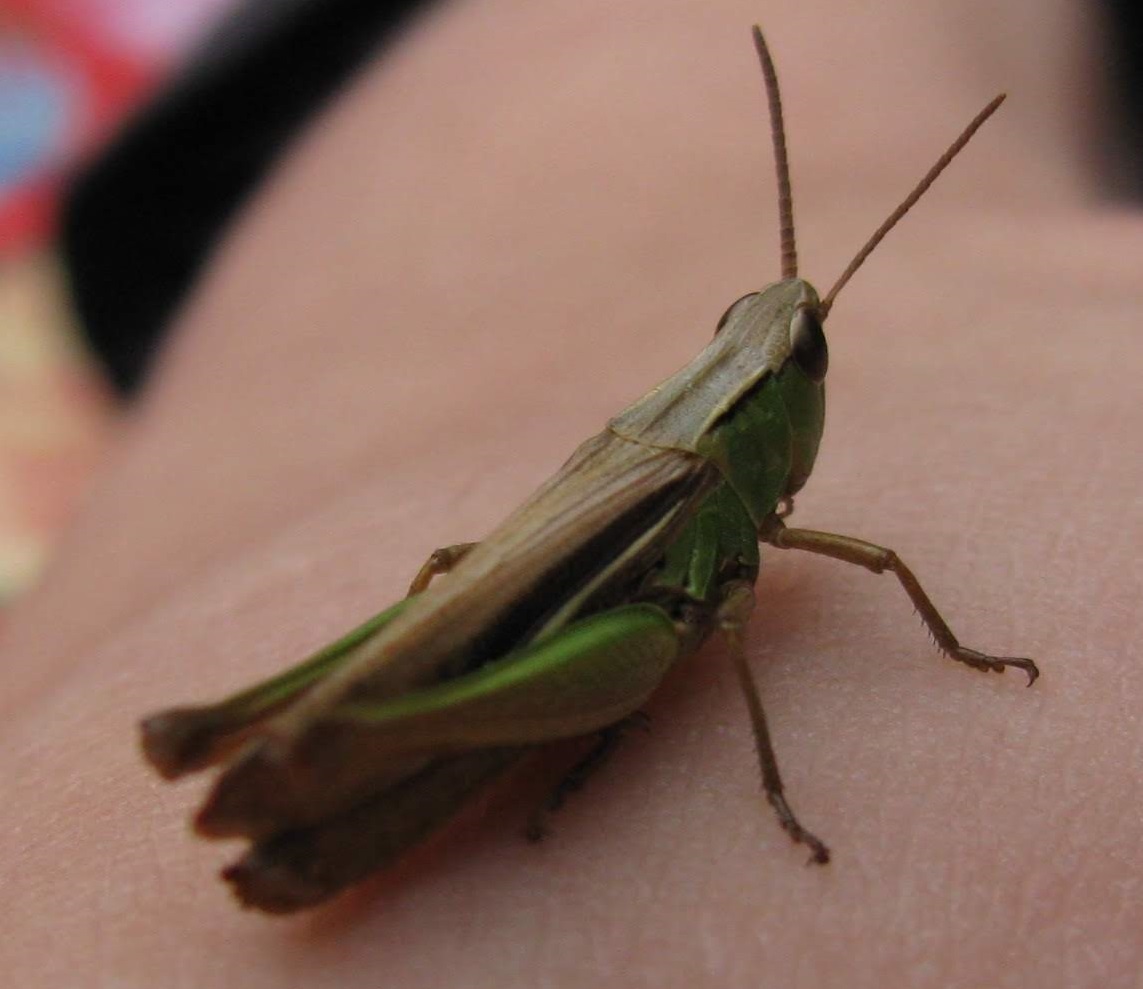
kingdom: Animalia
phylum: Arthropoda
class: Insecta
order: Orthoptera
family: Acrididae
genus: Chorthippus
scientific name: Chorthippus albomarginatus
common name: Lesser marsh grasshopper
